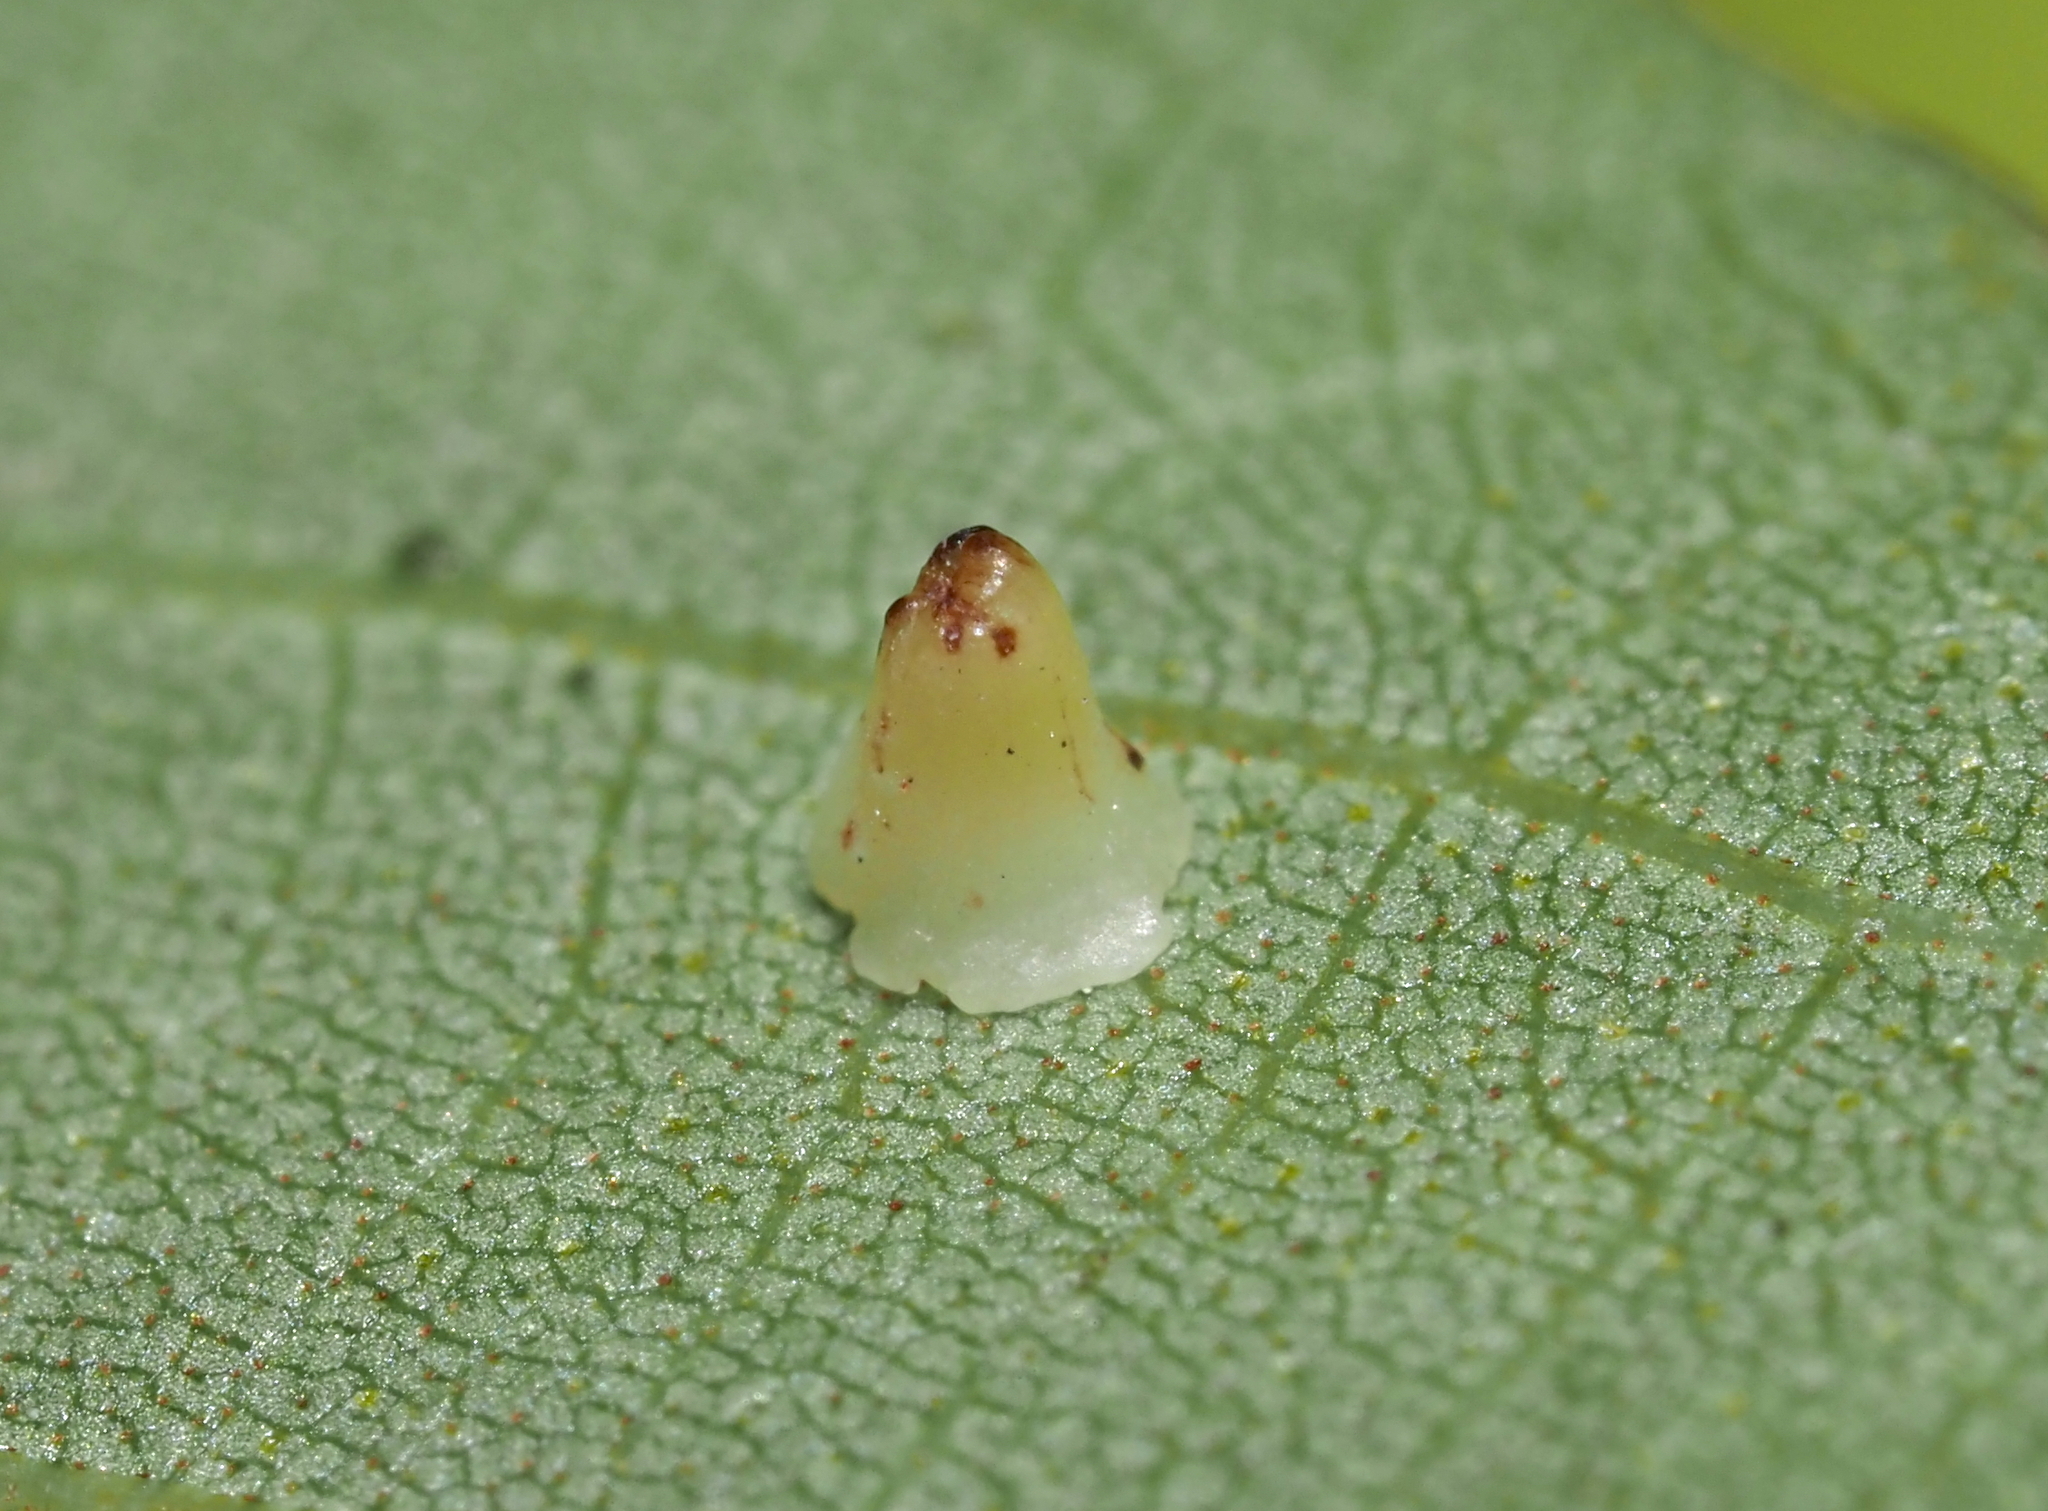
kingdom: Animalia
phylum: Arthropoda
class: Insecta
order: Diptera
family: Cecidomyiidae
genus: Caryomyia
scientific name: Caryomyia sanguinolenta
